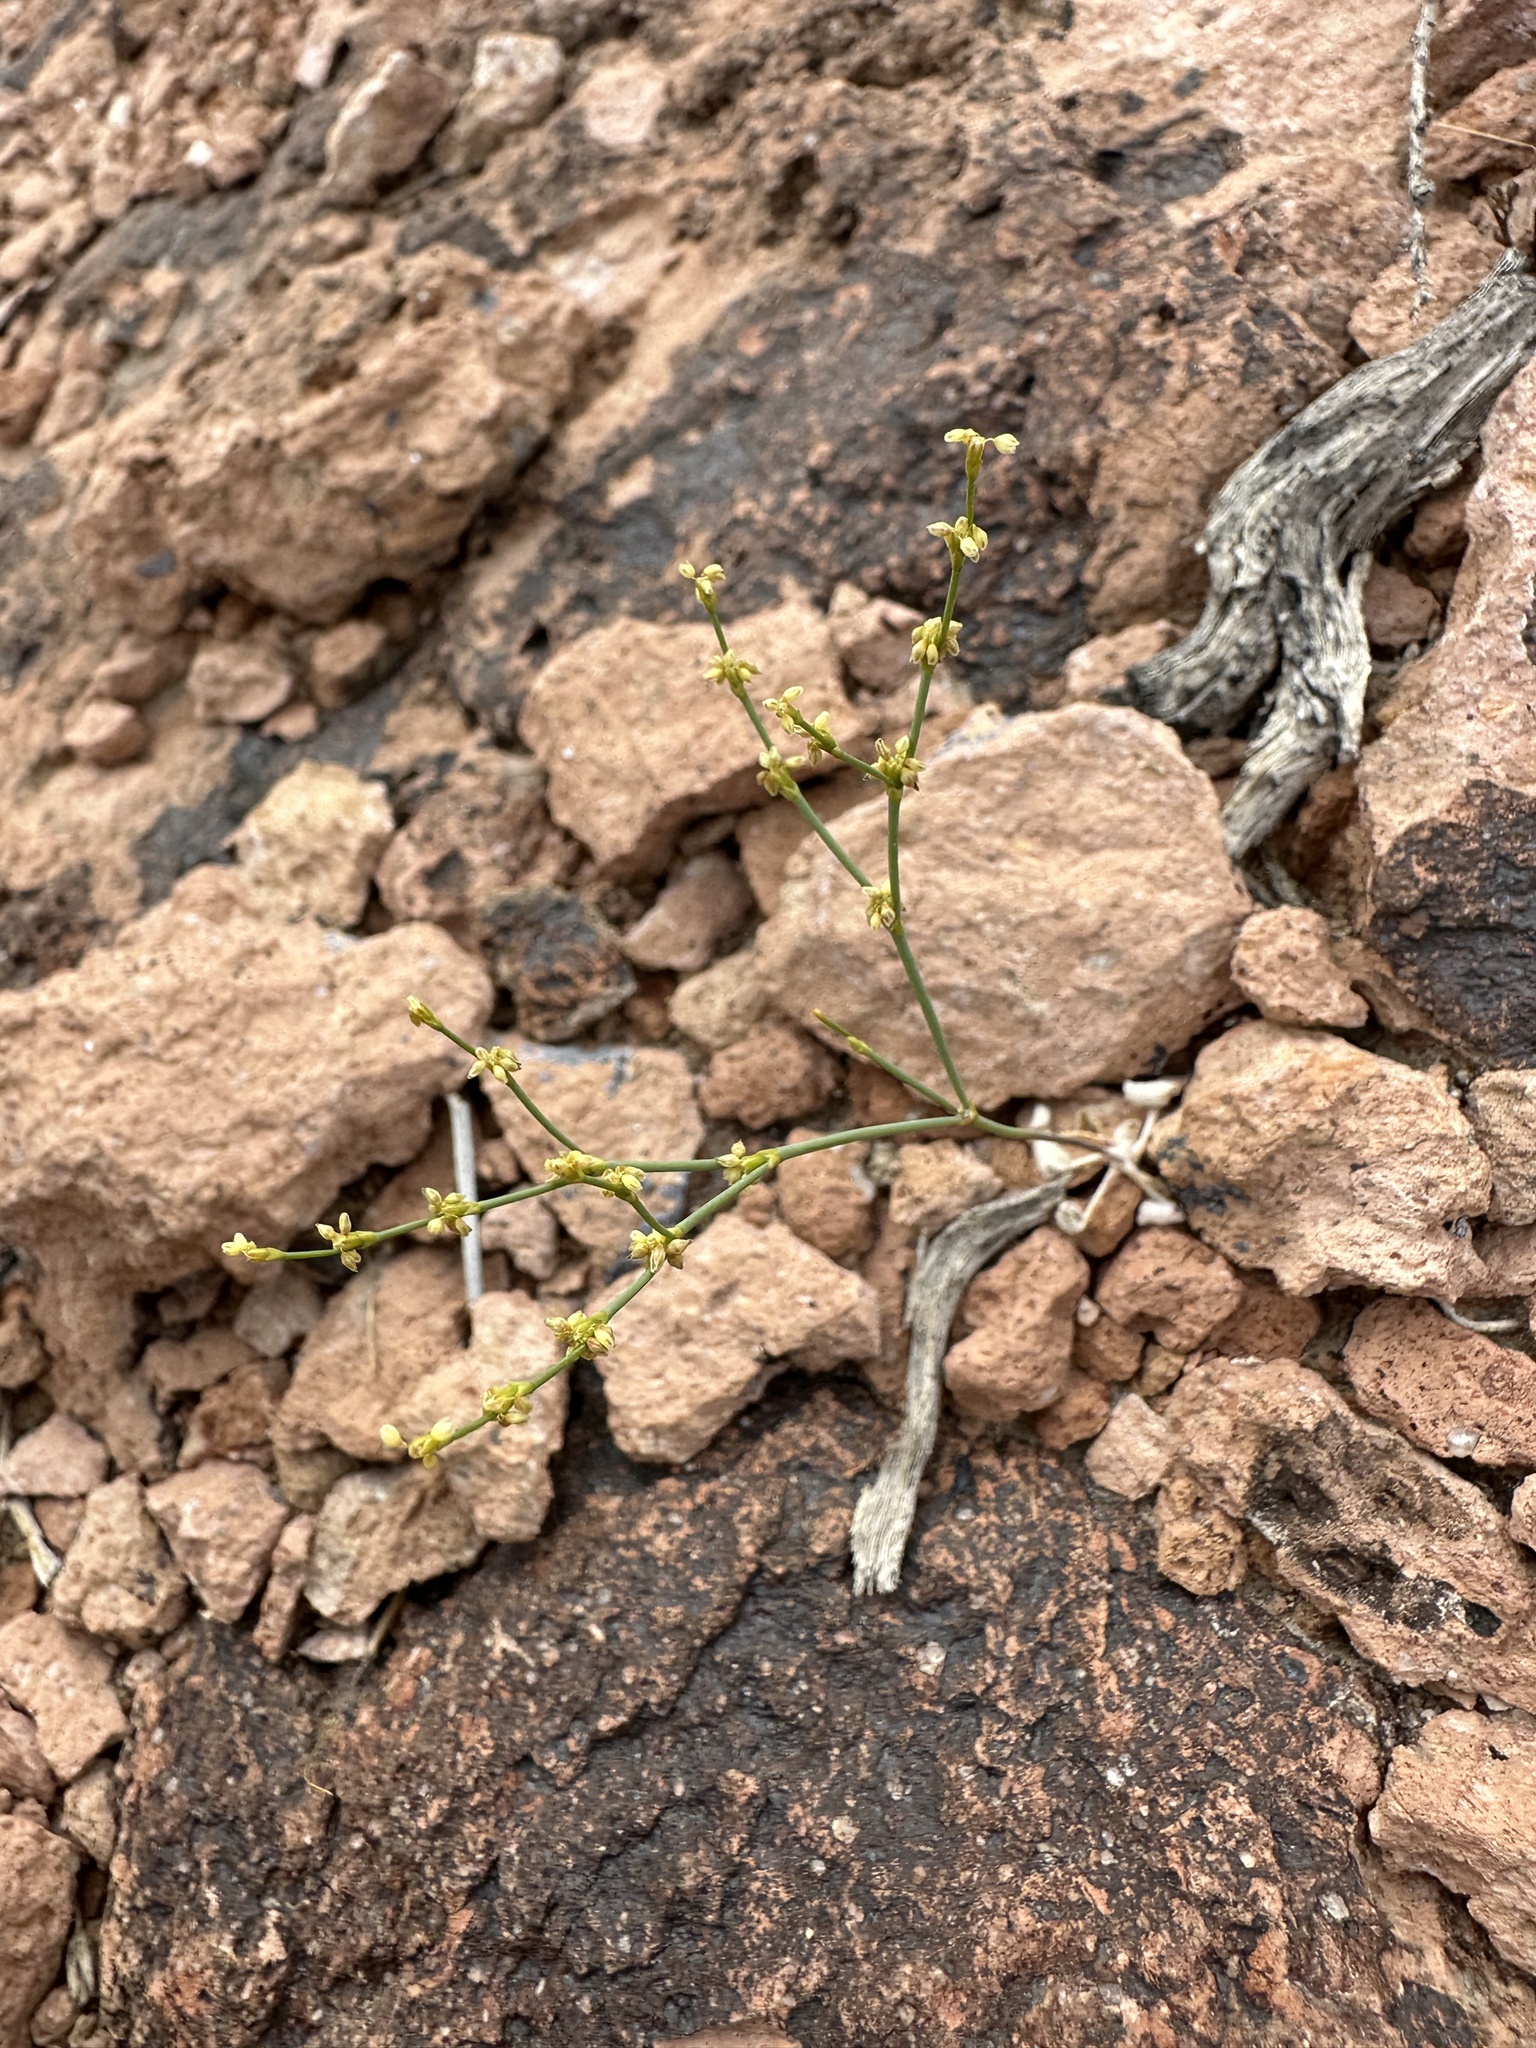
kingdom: Plantae
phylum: Tracheophyta
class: Magnoliopsida
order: Caryophyllales
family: Polygonaceae
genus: Eriogonum
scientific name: Eriogonum brachyanthum
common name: Short-flower wild buckwheat
